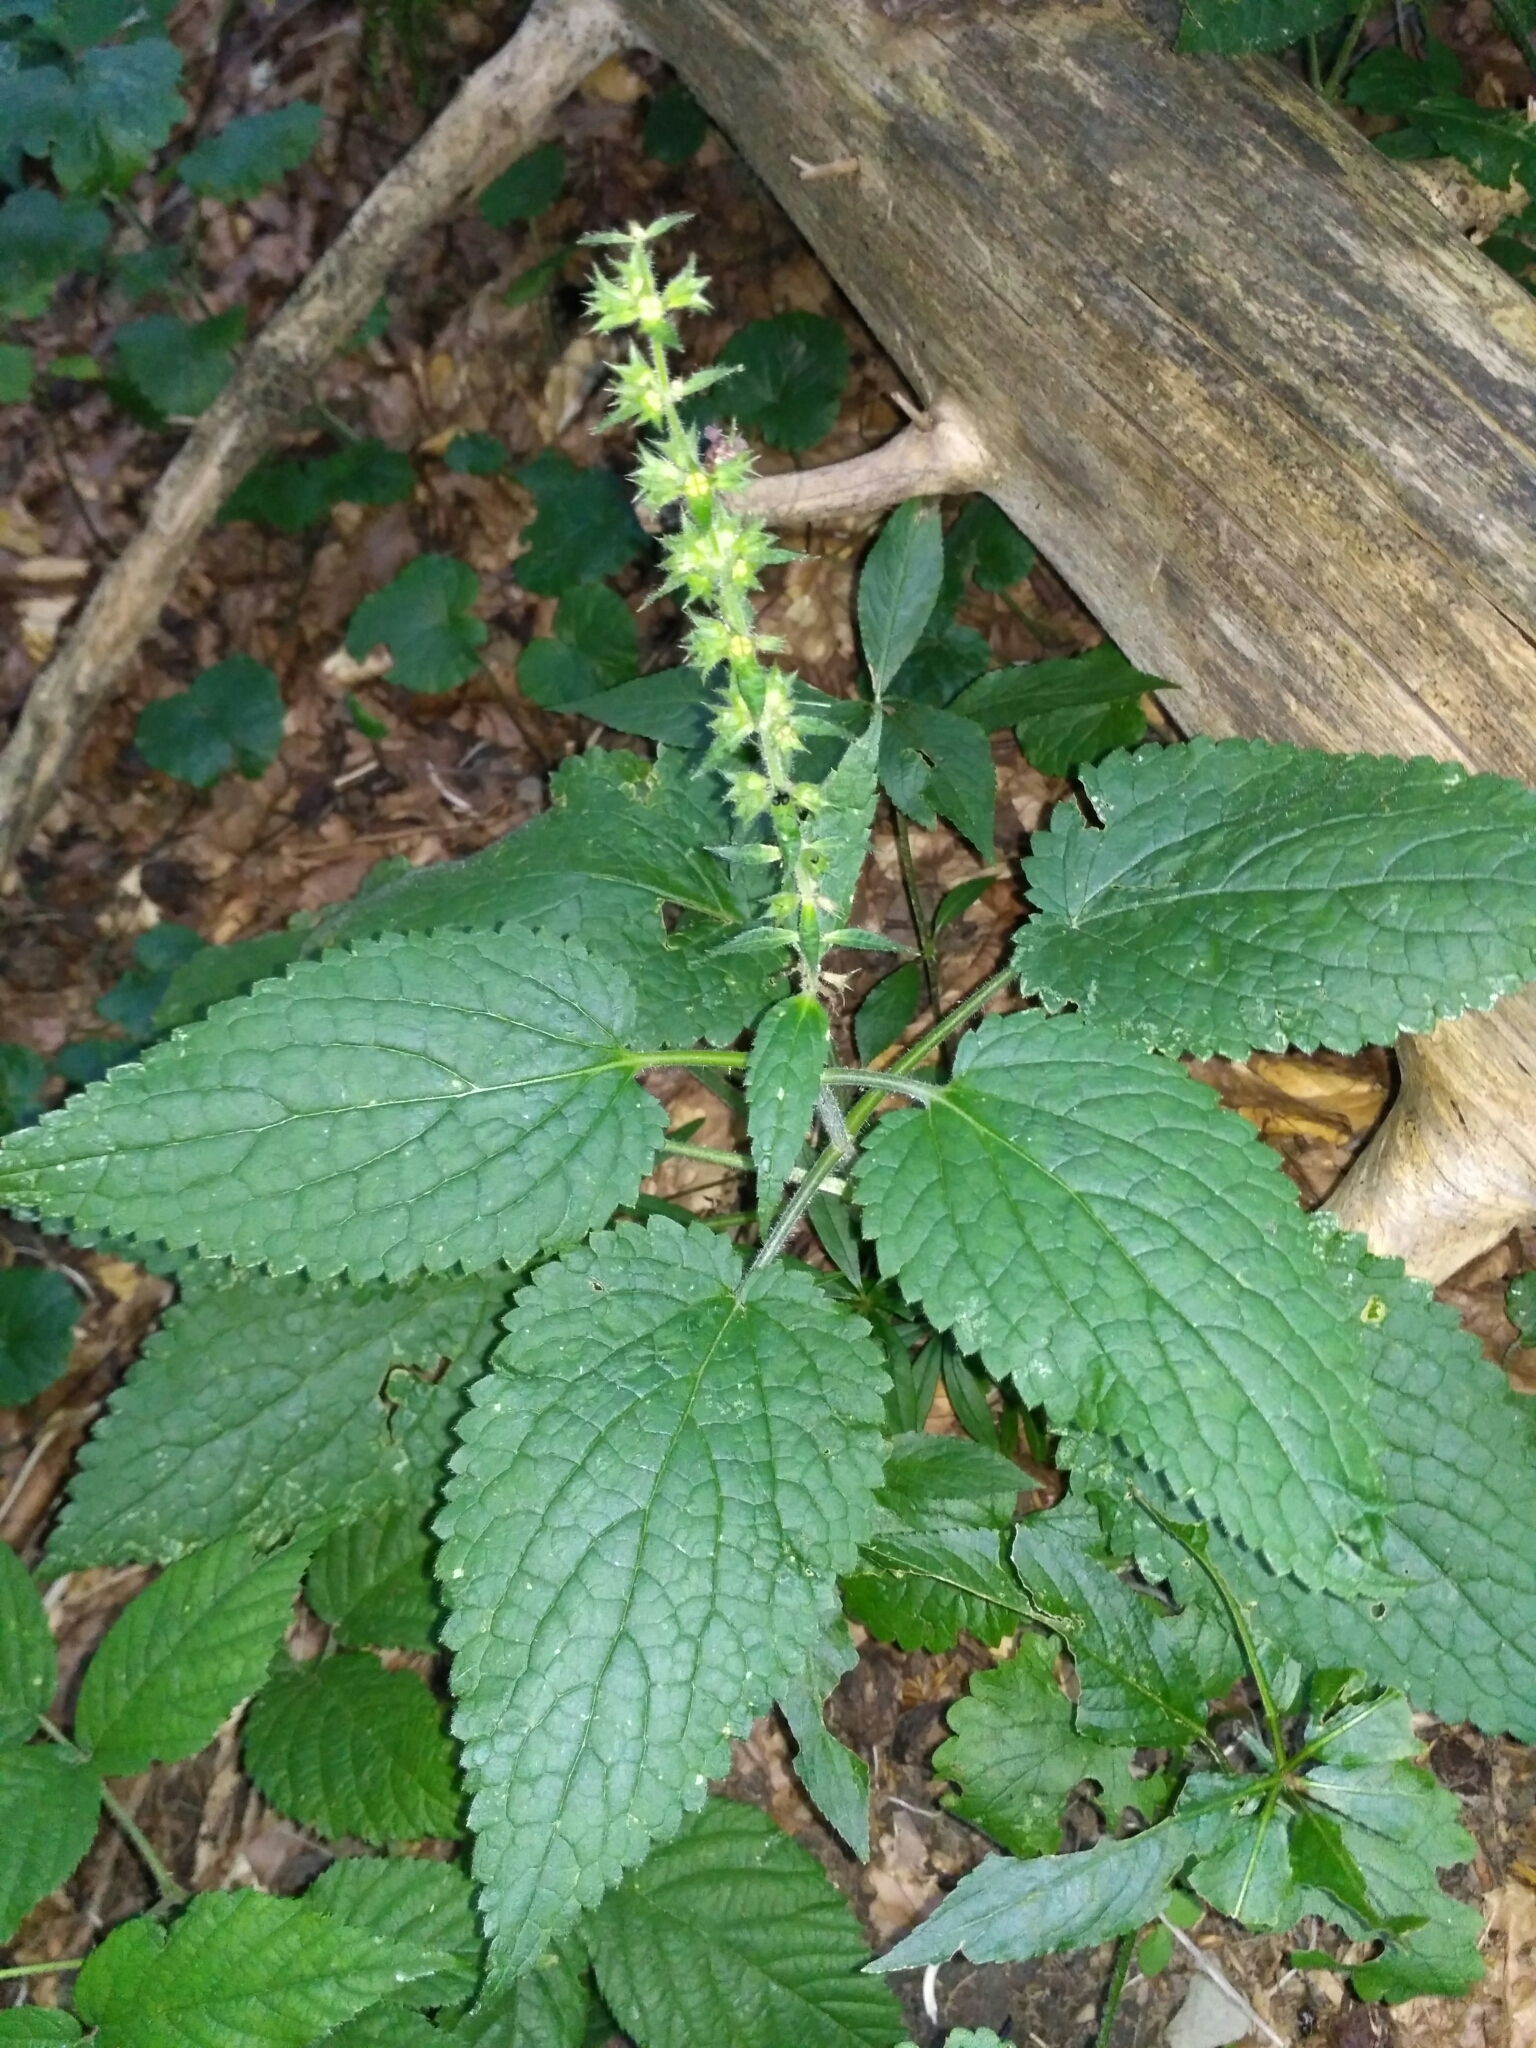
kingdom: Plantae
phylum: Tracheophyta
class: Magnoliopsida
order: Lamiales
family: Lamiaceae
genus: Stachys
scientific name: Stachys sylvatica
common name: Hedge woundwort
